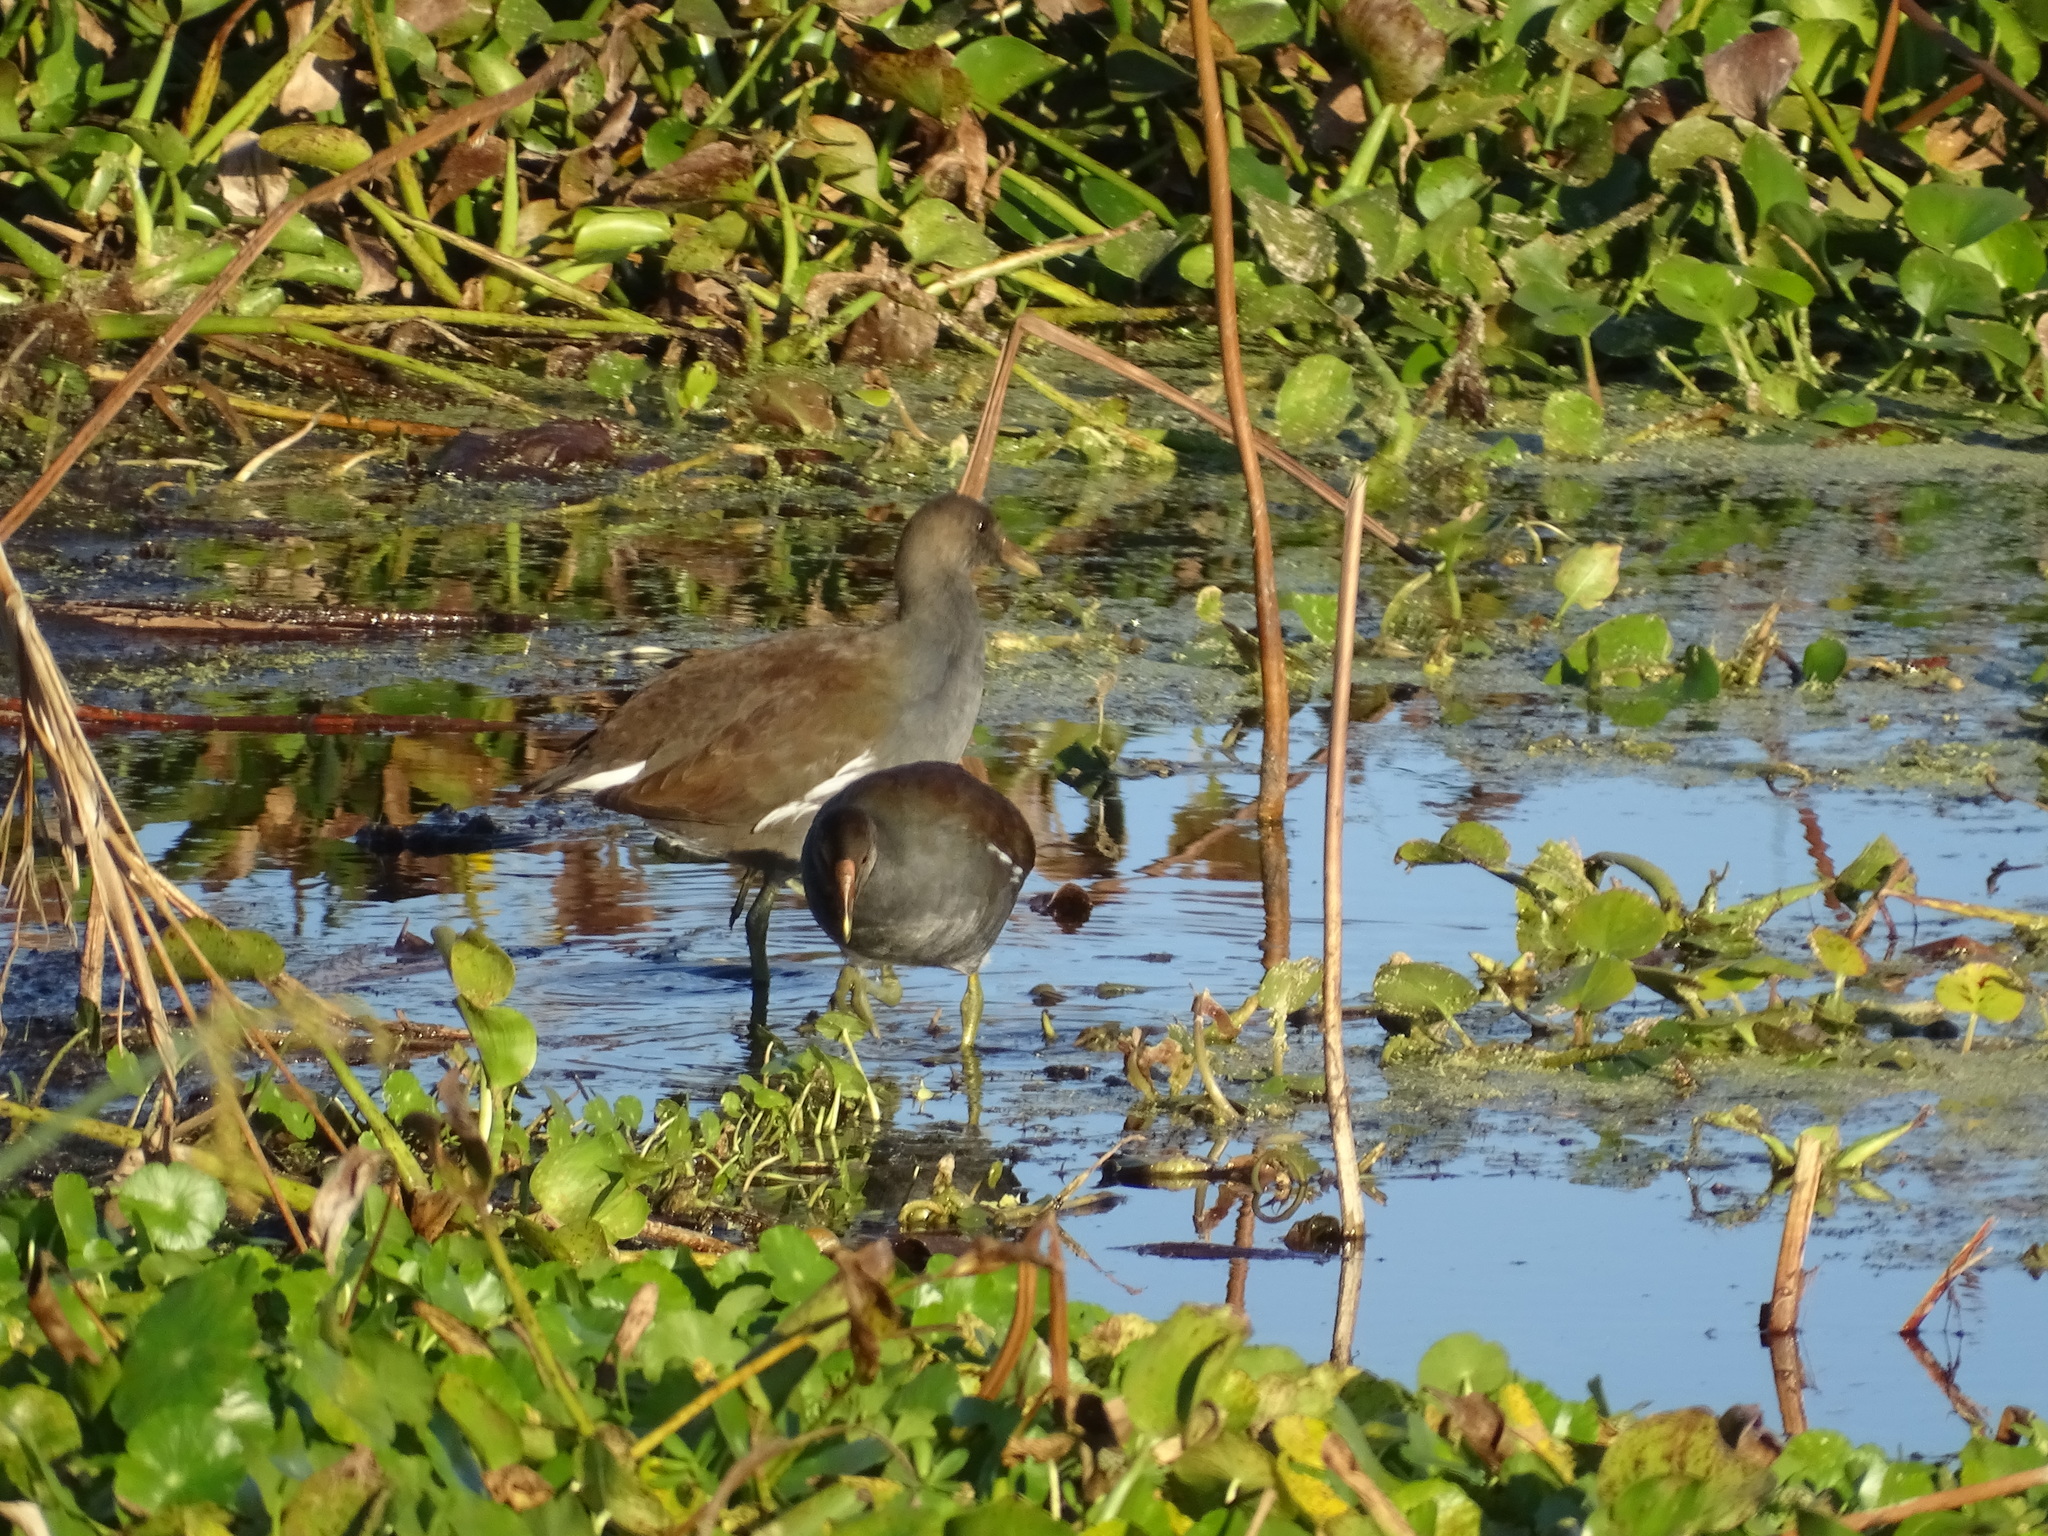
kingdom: Animalia
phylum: Chordata
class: Aves
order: Gruiformes
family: Rallidae
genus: Gallinula
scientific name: Gallinula chloropus
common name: Common moorhen
